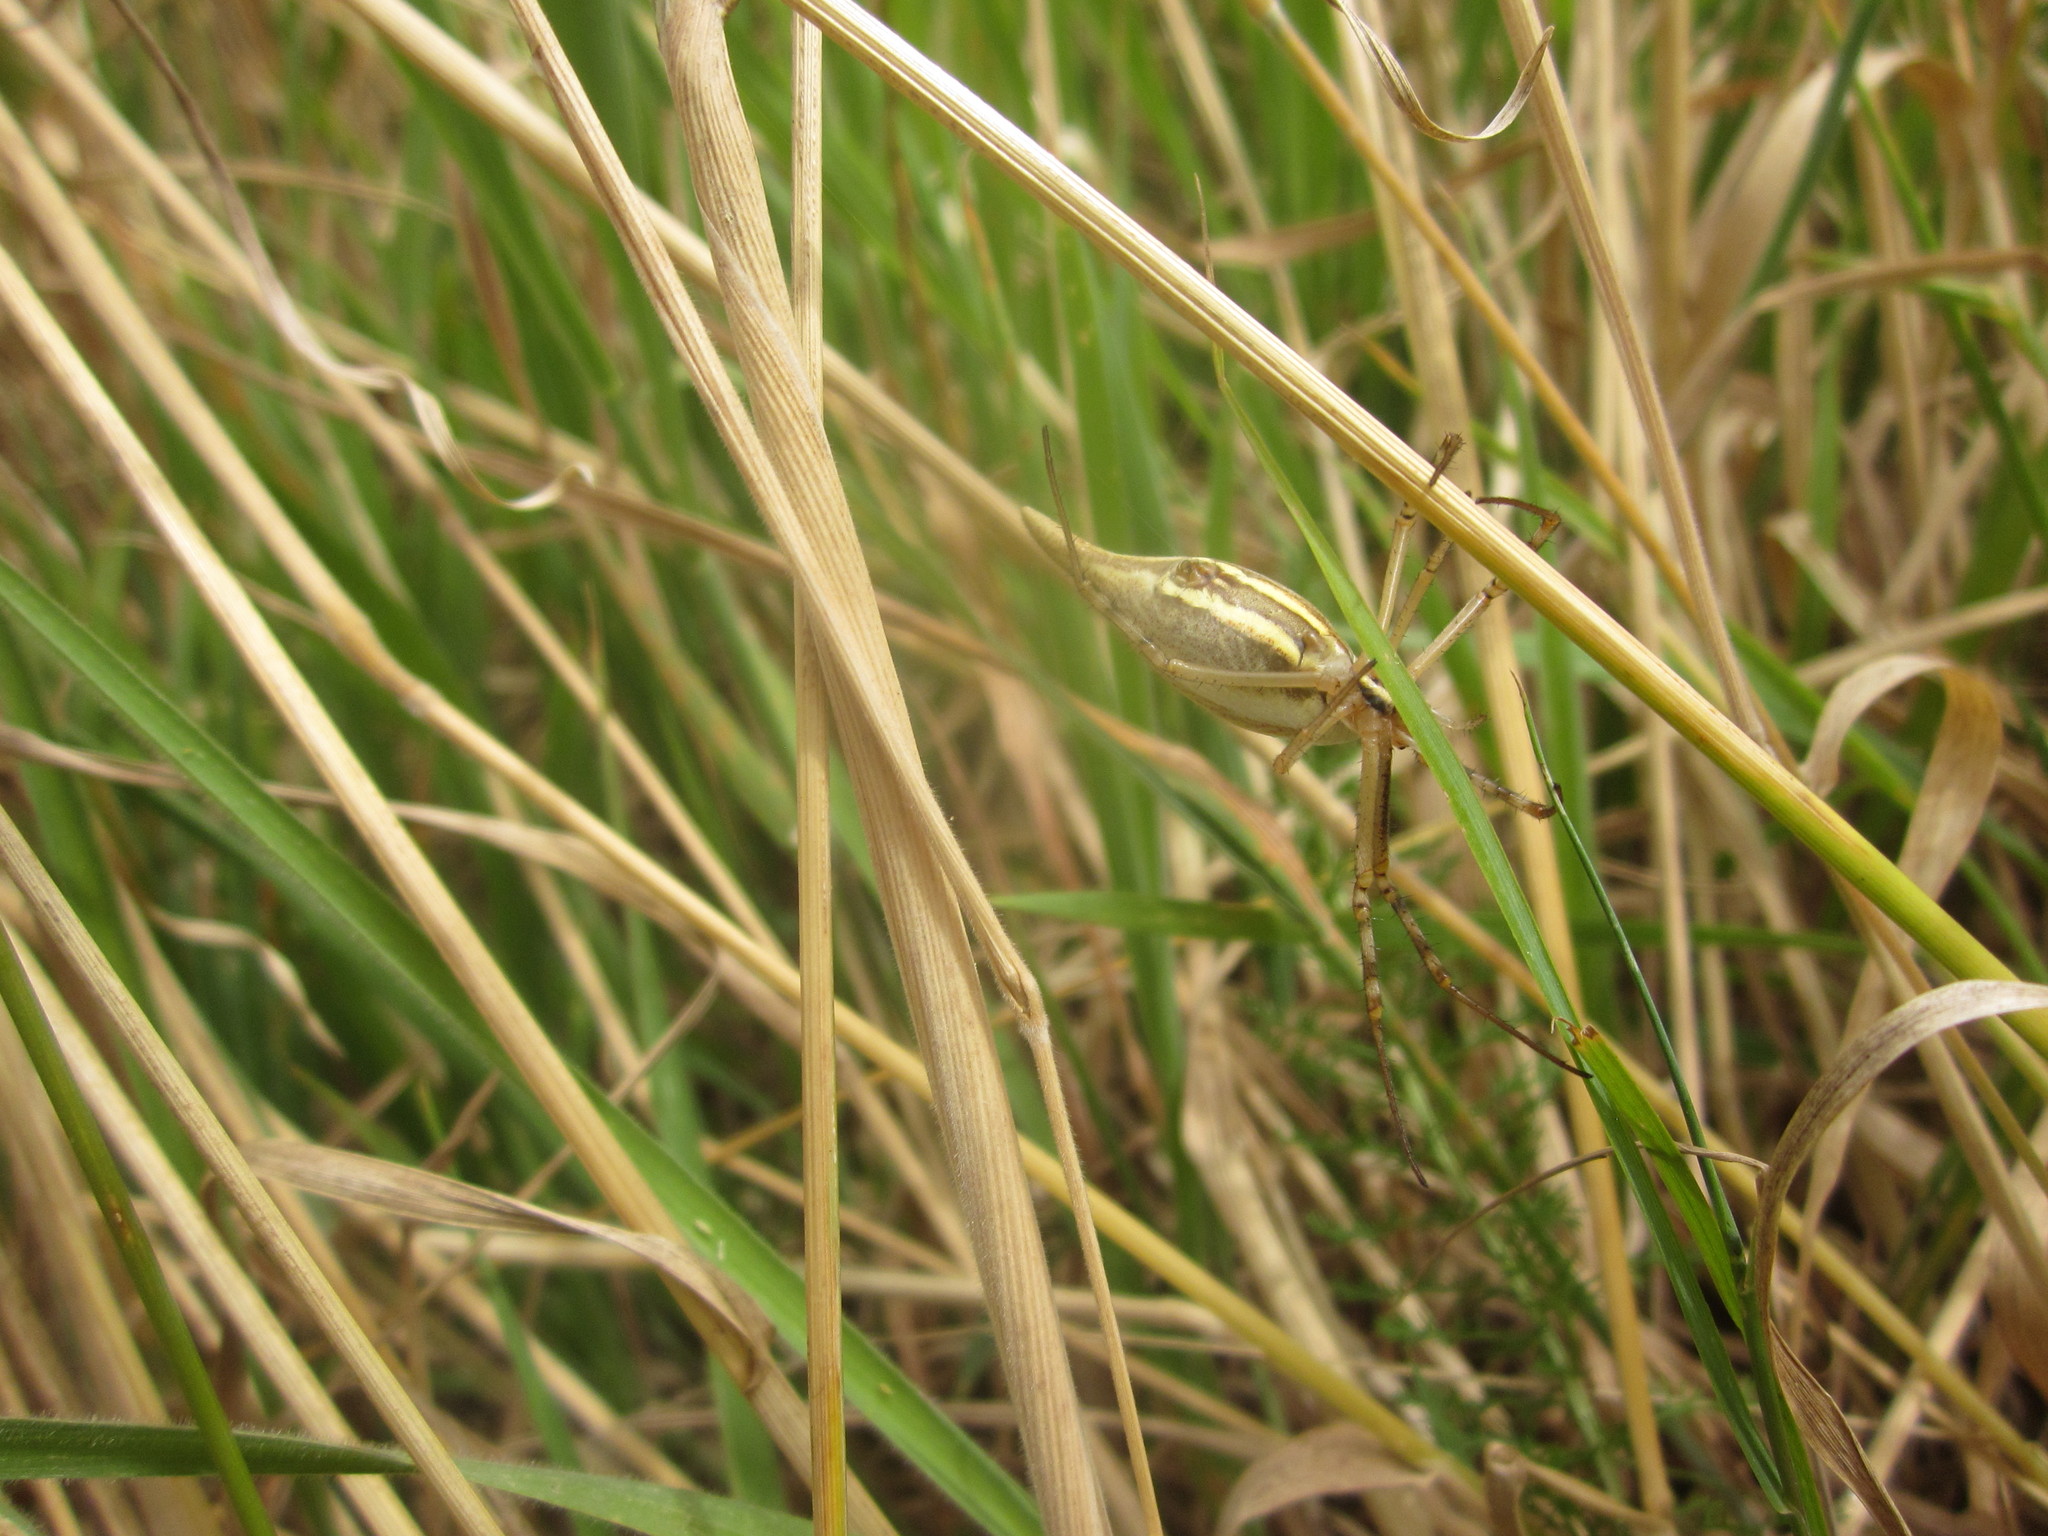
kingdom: Animalia
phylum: Arthropoda
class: Arachnida
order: Araneae
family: Araneidae
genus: Argiope
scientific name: Argiope protensa
